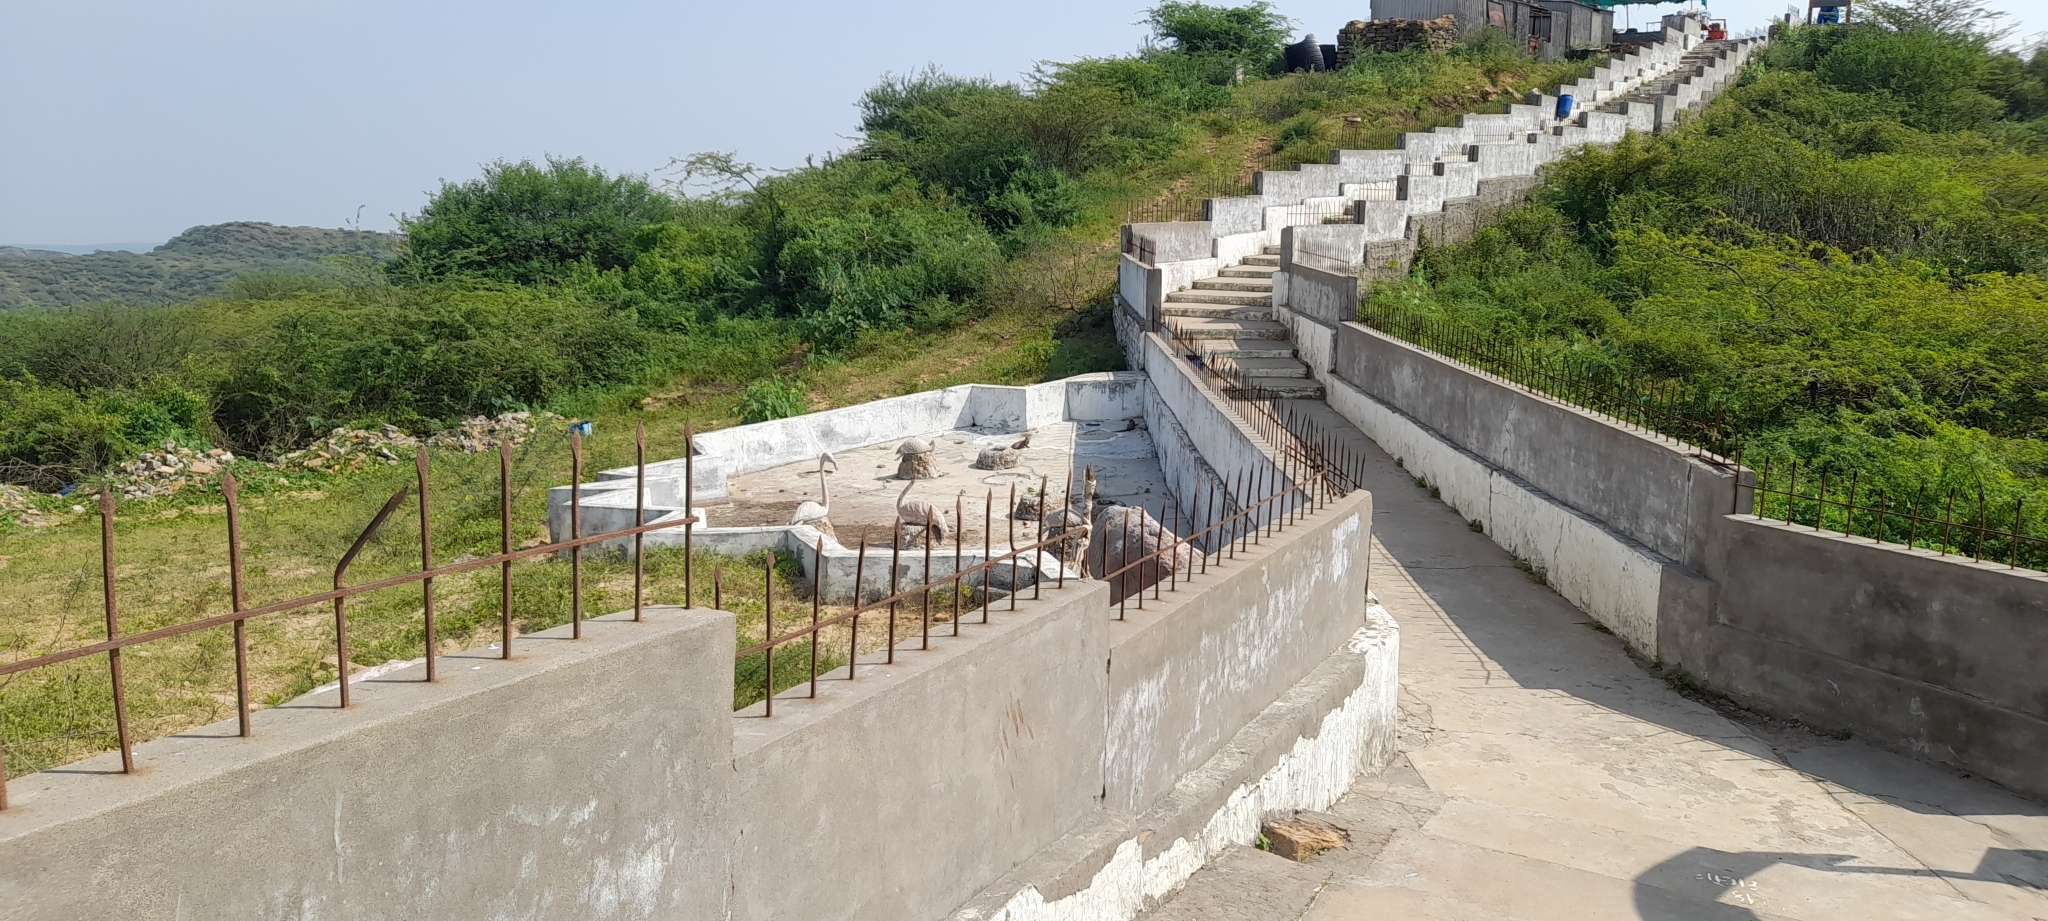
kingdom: Animalia
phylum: Chordata
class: Mammalia
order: Carnivora
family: Herpestidae
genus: Herpestes
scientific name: Herpestes edwardsi
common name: Indian gray mongoose
